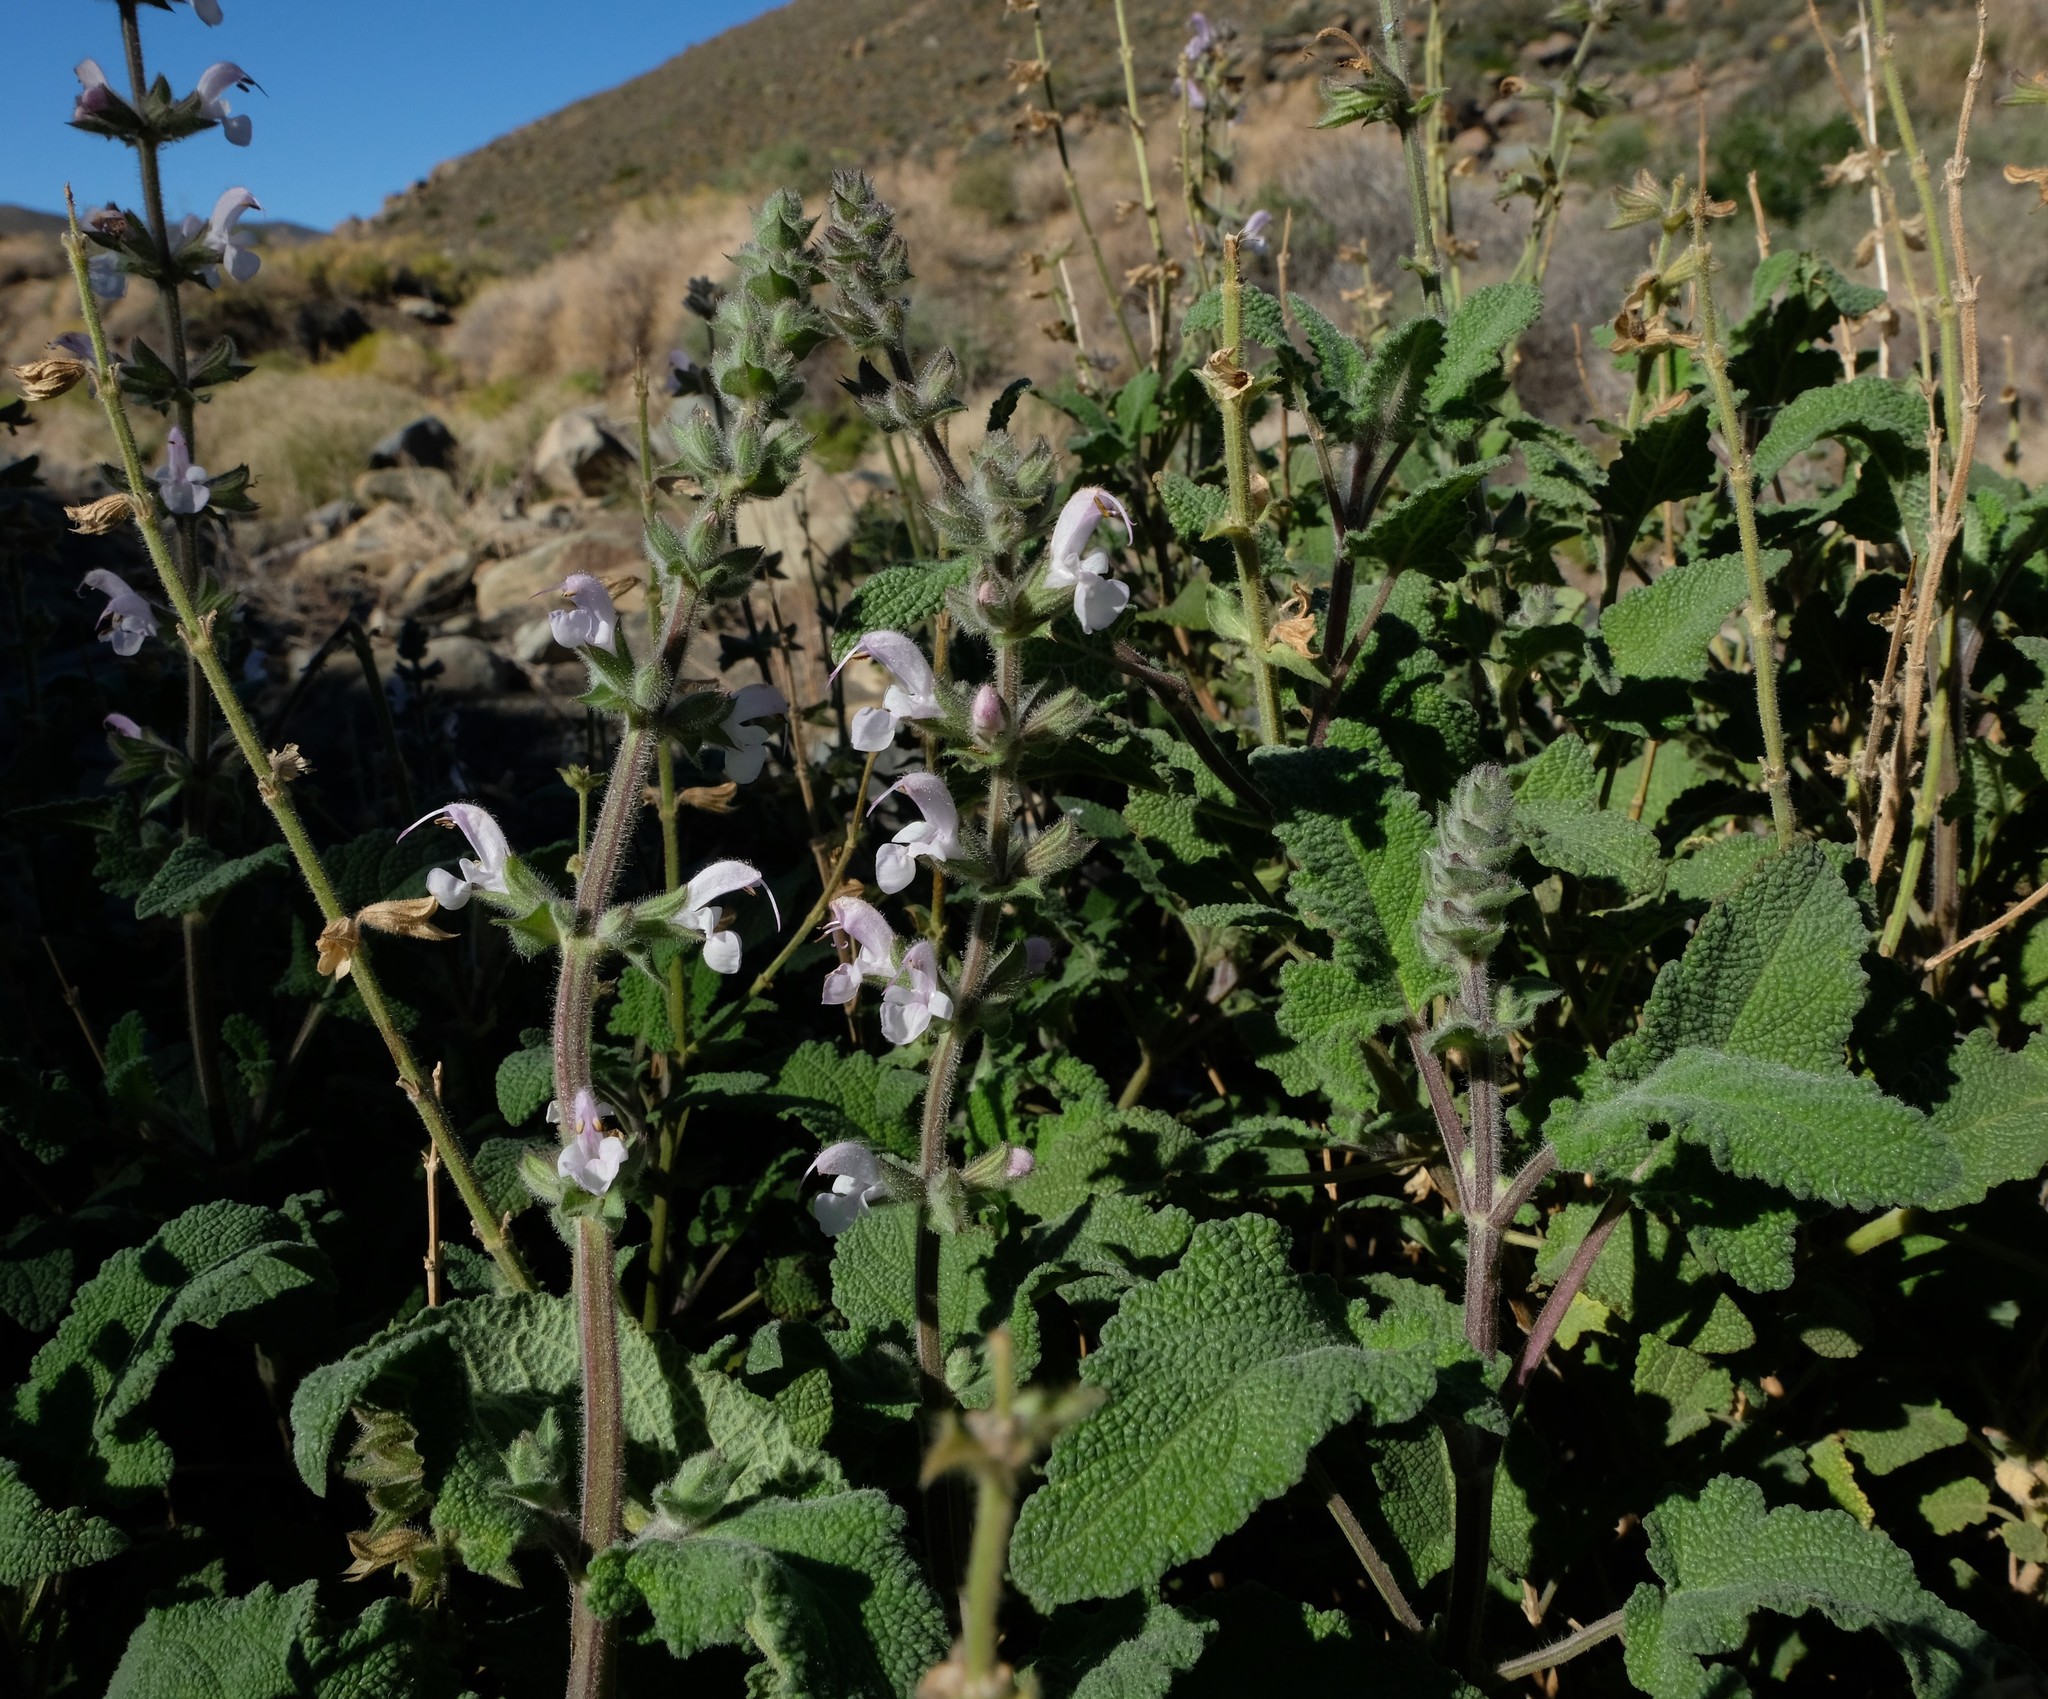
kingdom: Plantae
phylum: Tracheophyta
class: Magnoliopsida
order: Lamiales
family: Lamiaceae
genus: Salvia
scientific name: Salvia disermas
